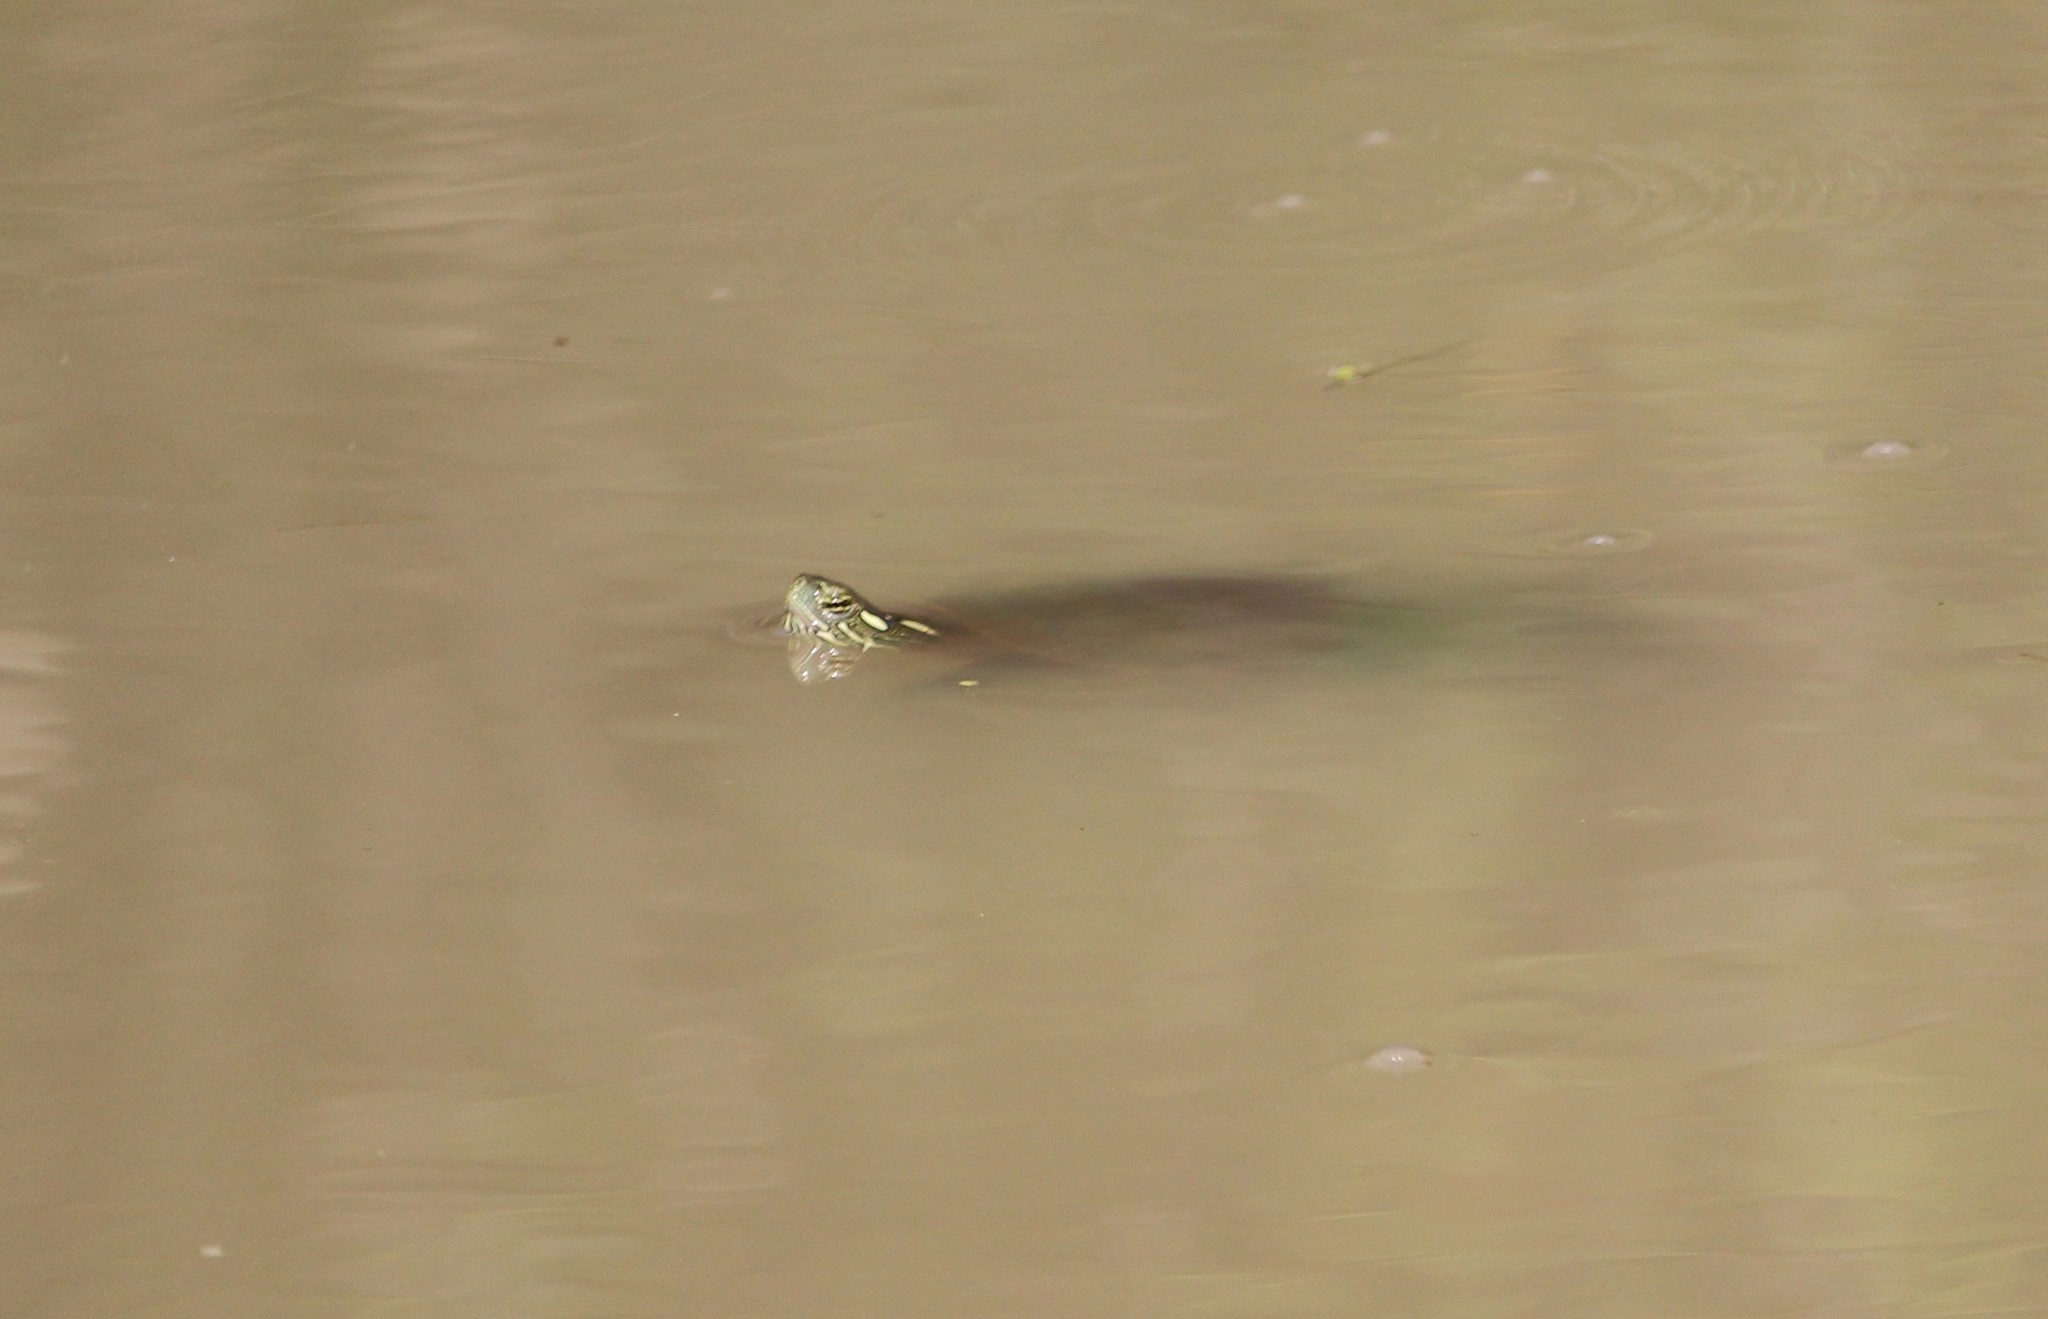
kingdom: Animalia
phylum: Chordata
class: Testudines
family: Emydidae
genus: Chrysemys
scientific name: Chrysemys picta
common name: Painted turtle
